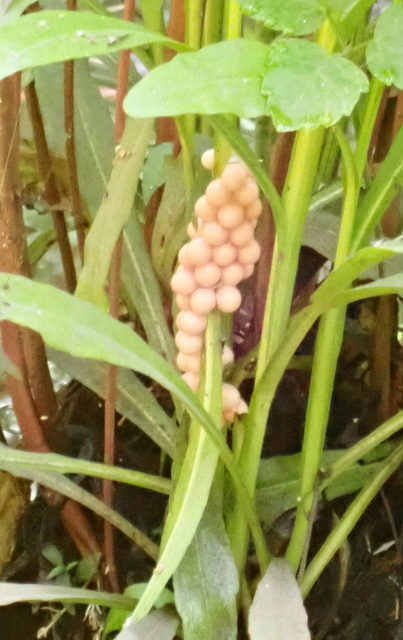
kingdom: Animalia
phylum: Mollusca
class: Gastropoda
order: Architaenioglossa
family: Ampullariidae
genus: Pomacea
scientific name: Pomacea paludosa
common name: Florida applesnail
